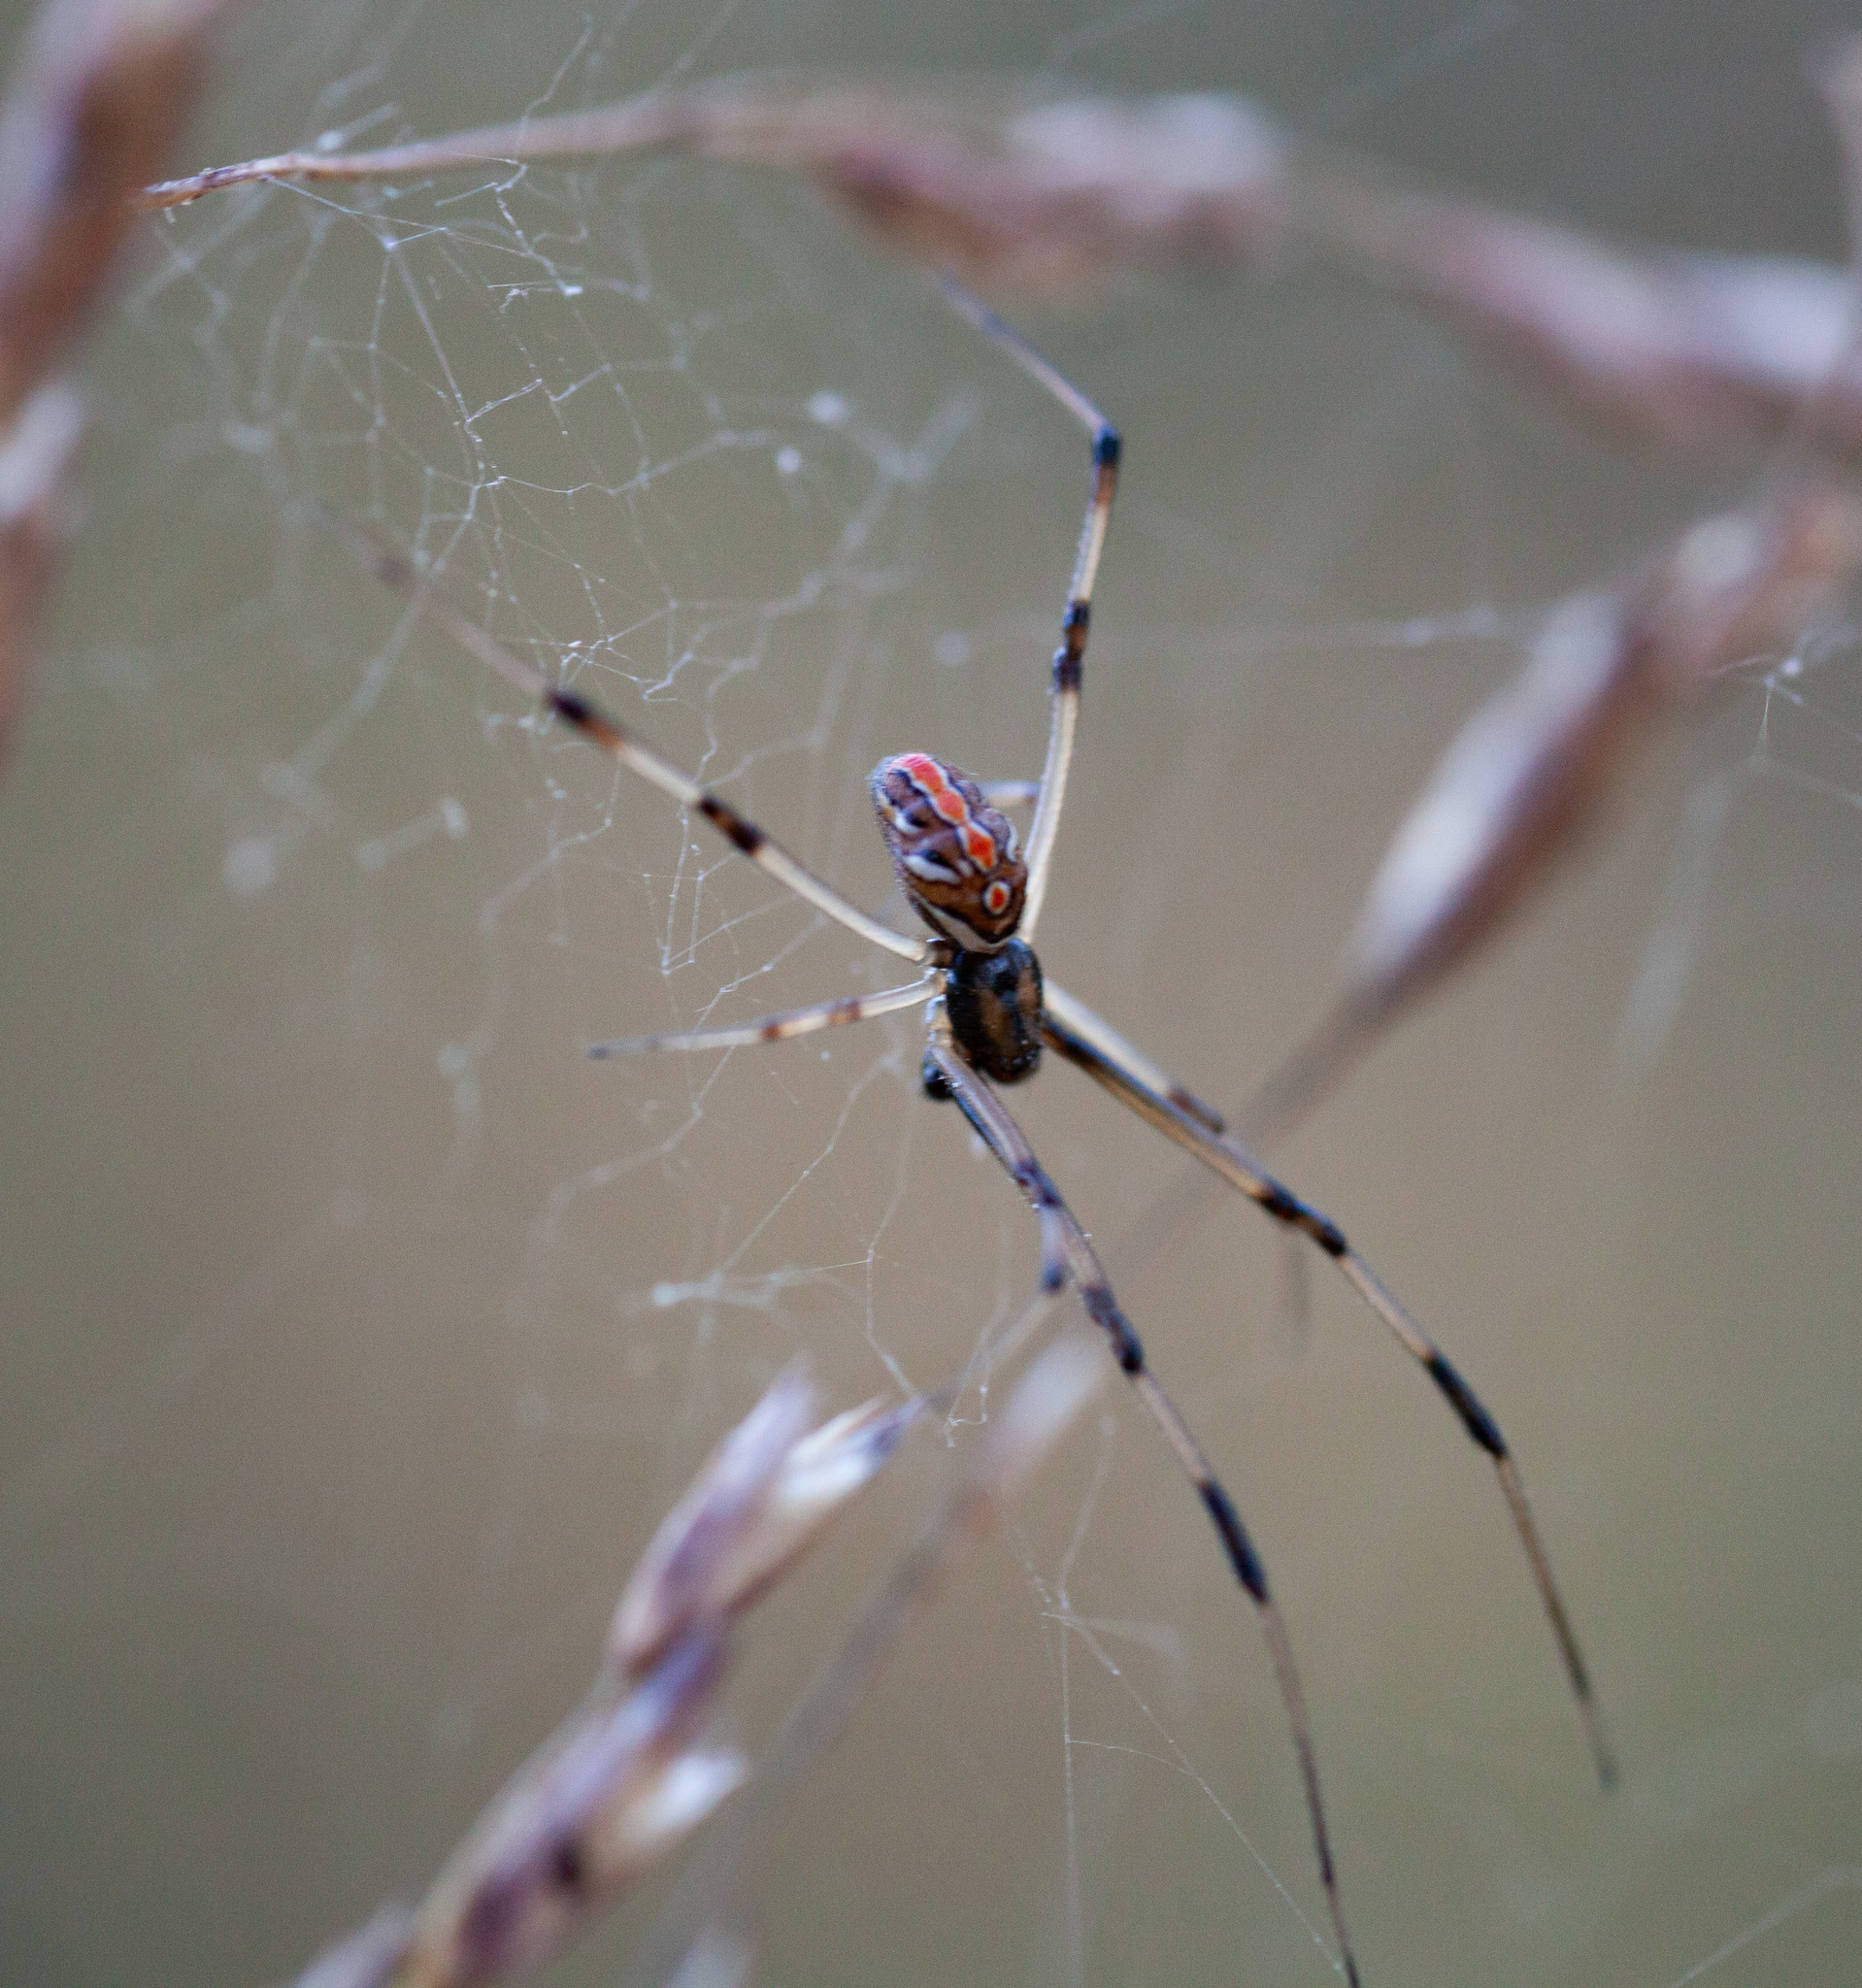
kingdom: Animalia
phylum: Arthropoda
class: Arachnida
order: Araneae
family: Theridiidae
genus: Latrodectus
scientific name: Latrodectus mactans
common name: Cobweb spiders
